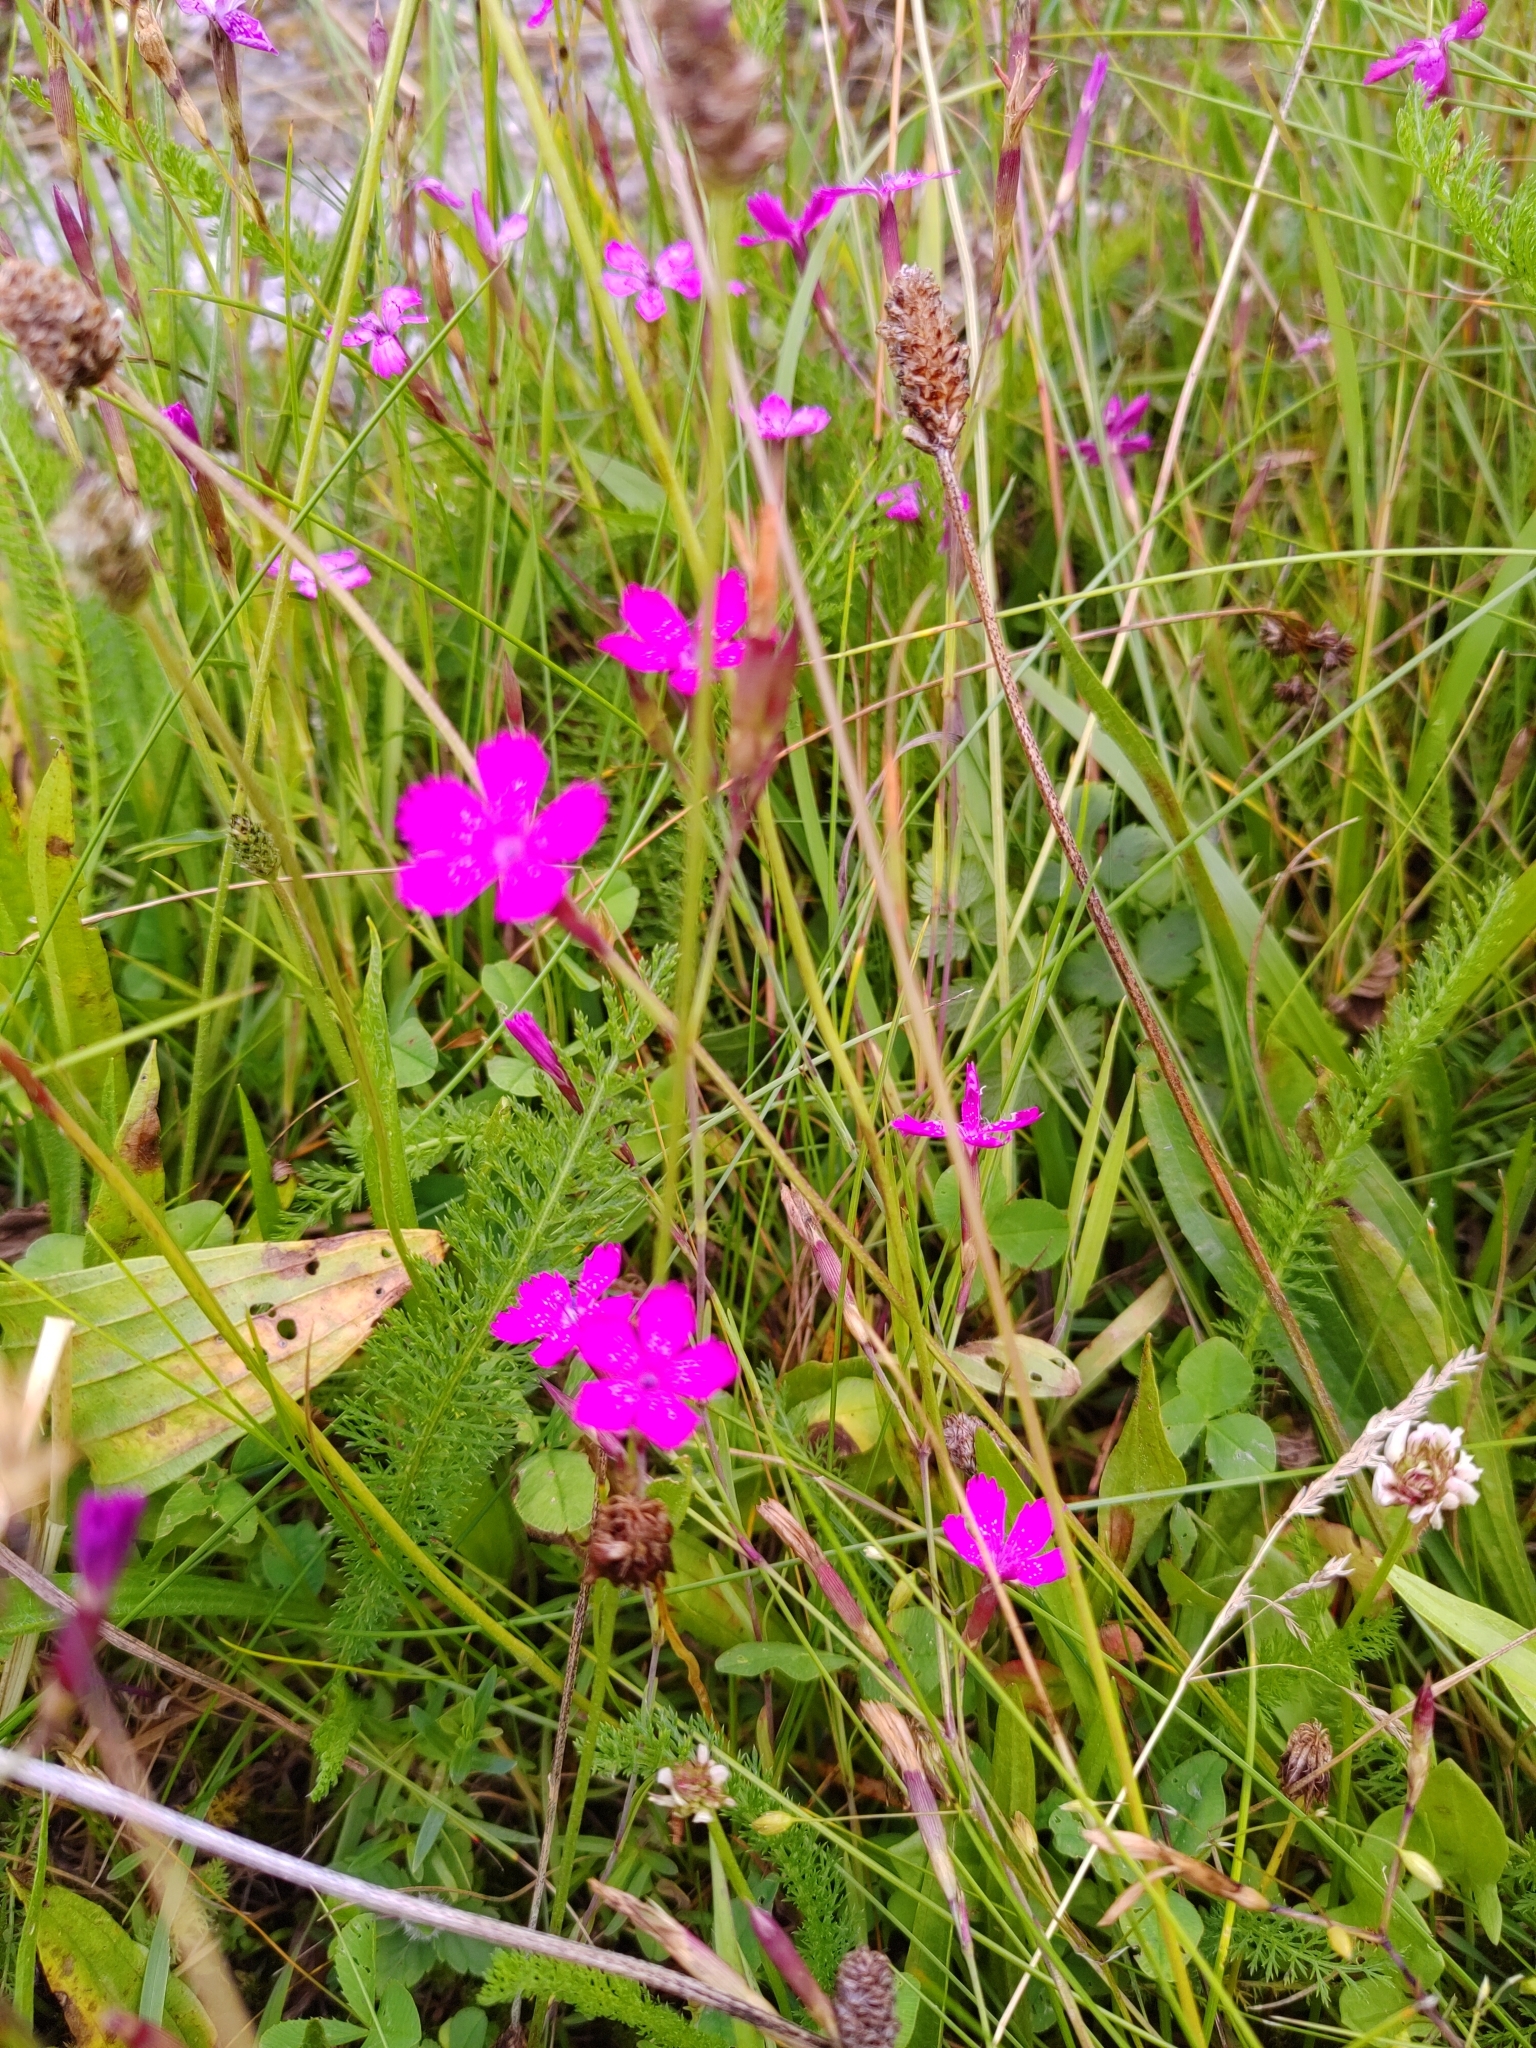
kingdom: Plantae
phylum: Tracheophyta
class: Magnoliopsida
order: Caryophyllales
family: Caryophyllaceae
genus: Dianthus
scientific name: Dianthus deltoides
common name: Maiden pink
